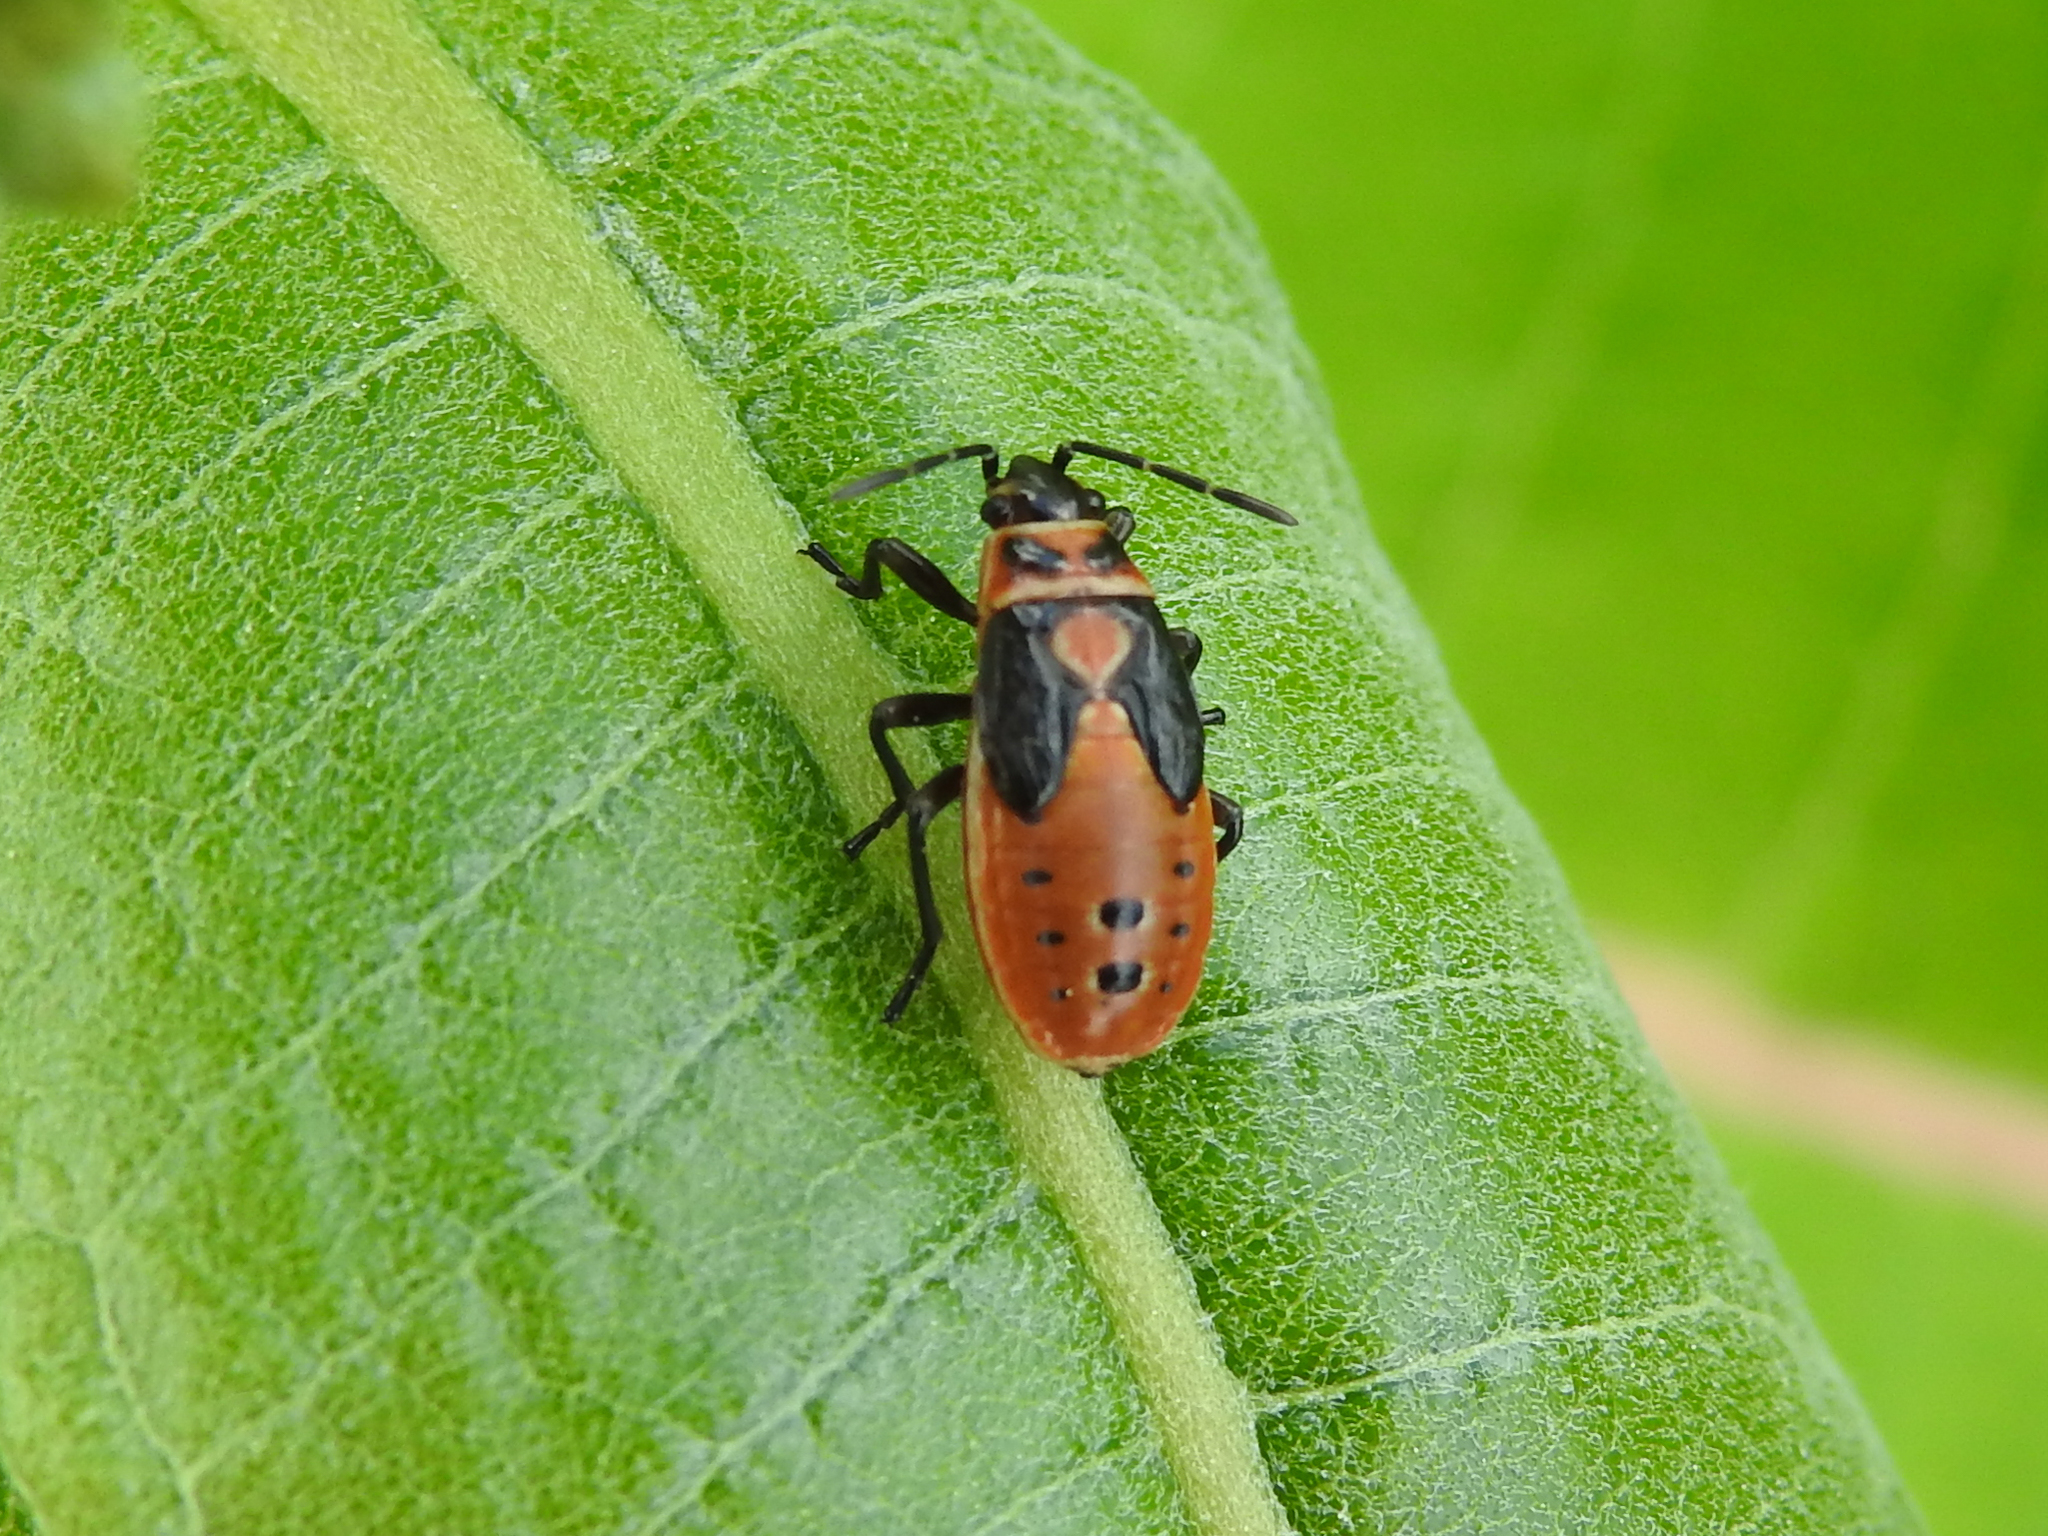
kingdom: Animalia
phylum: Arthropoda
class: Insecta
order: Hemiptera
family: Lygaeidae
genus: Lygaeus
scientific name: Lygaeus kalmii
